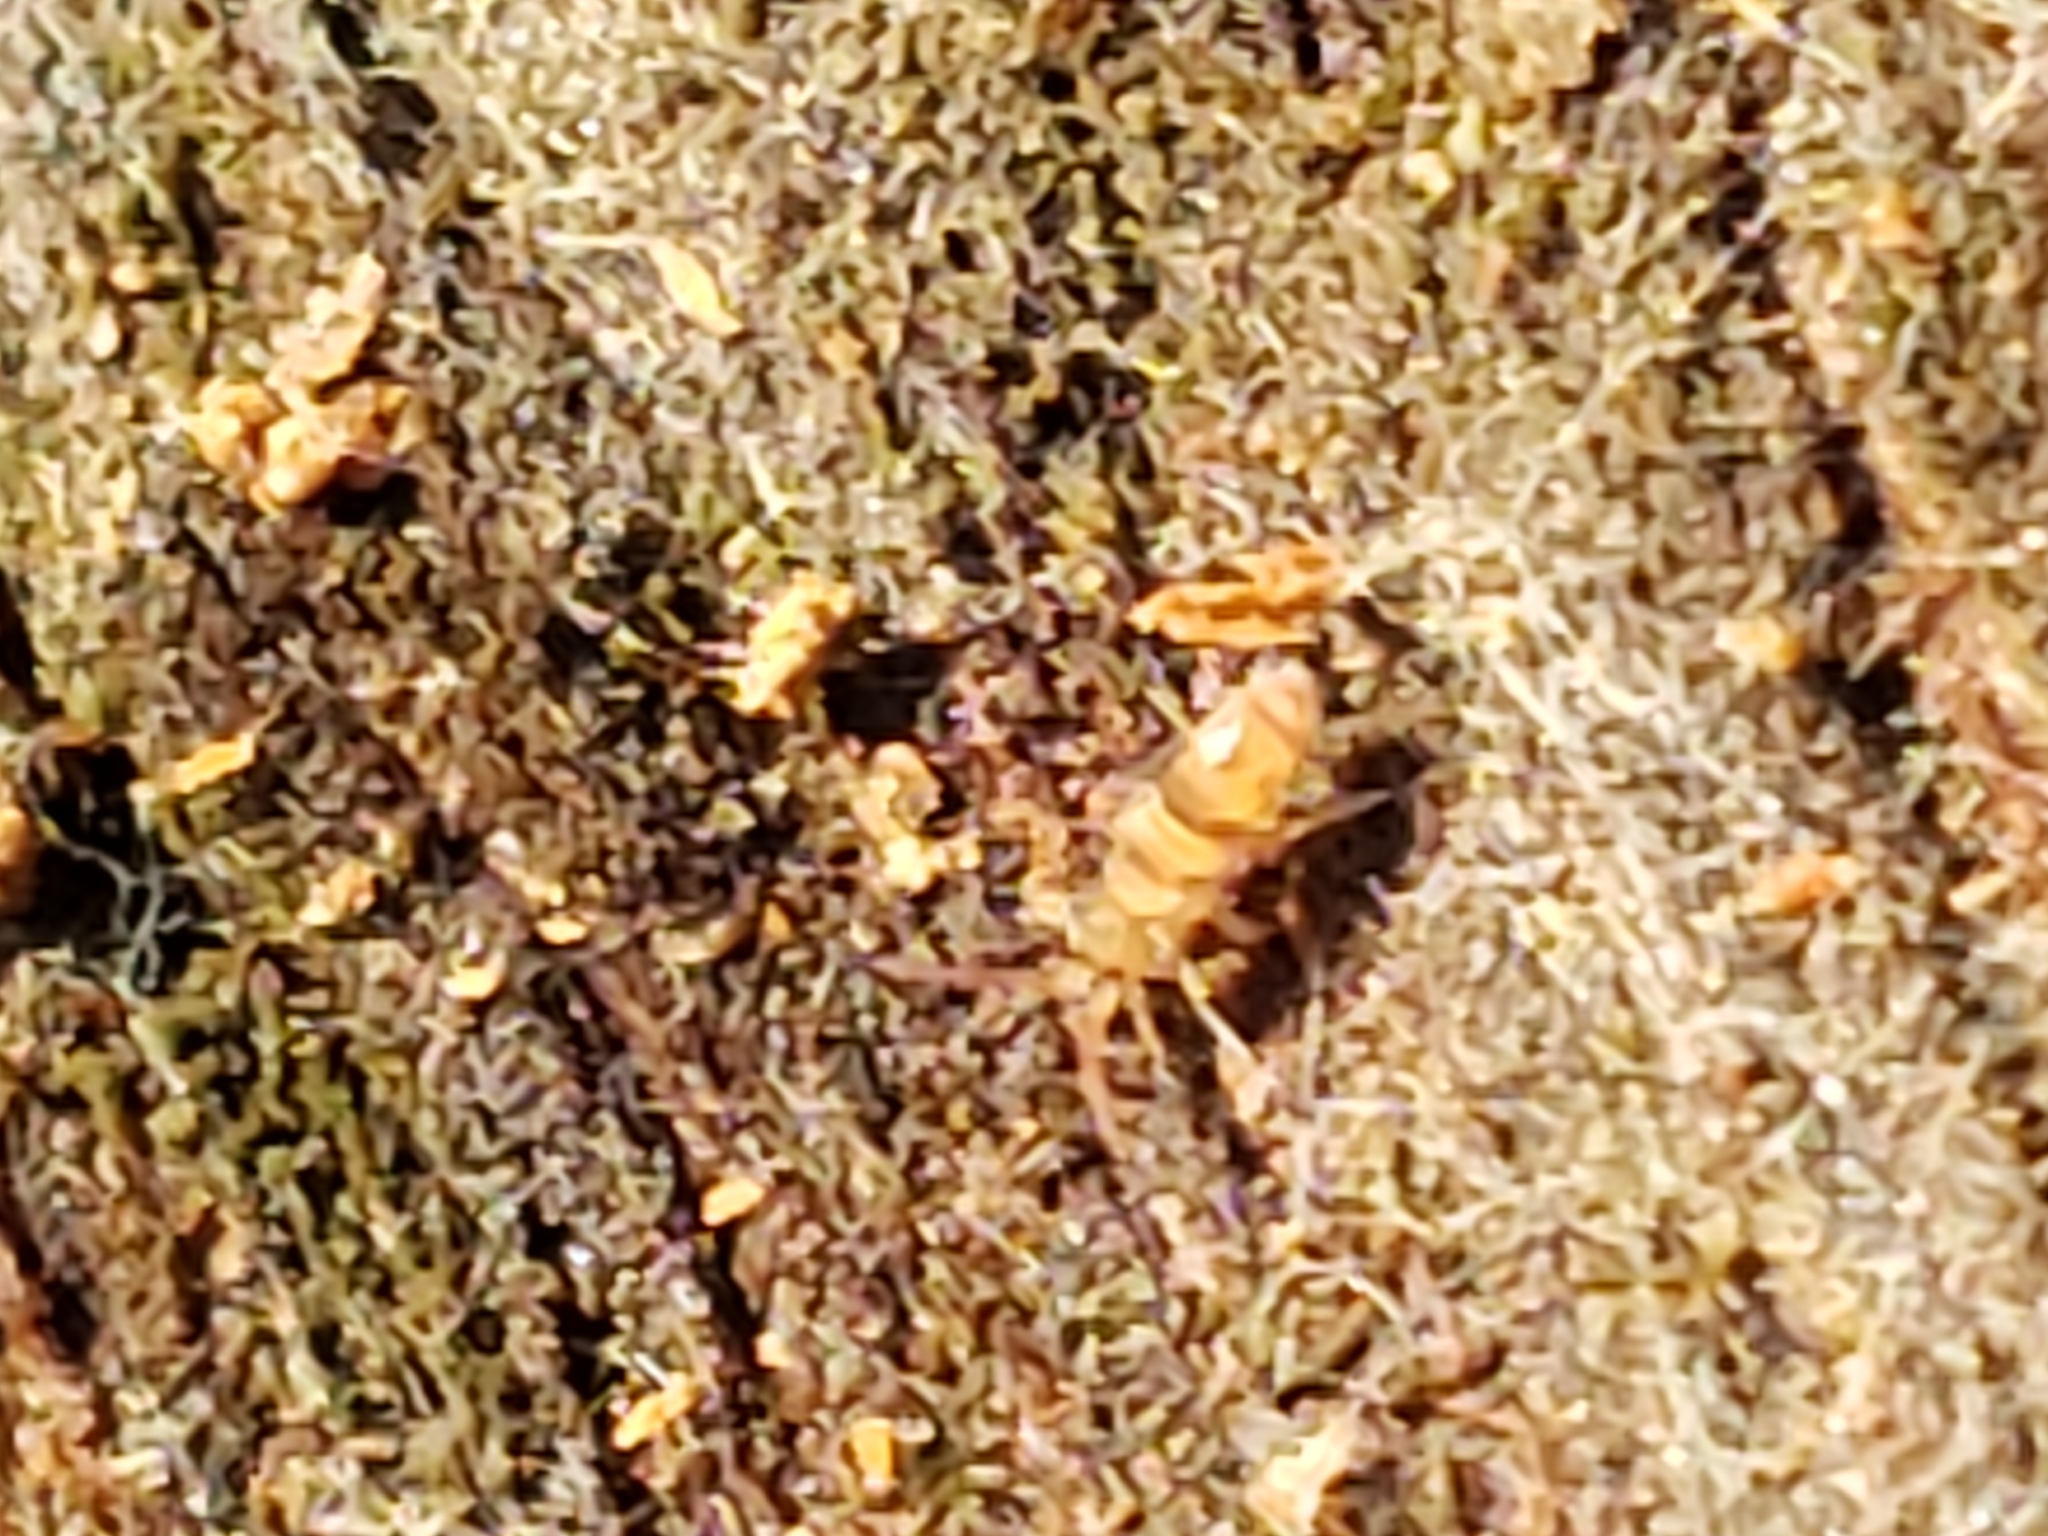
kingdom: Animalia
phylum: Arthropoda
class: Collembola
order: Entomobryomorpha
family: Orchesellidae
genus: Orchesella
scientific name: Orchesella cincta
